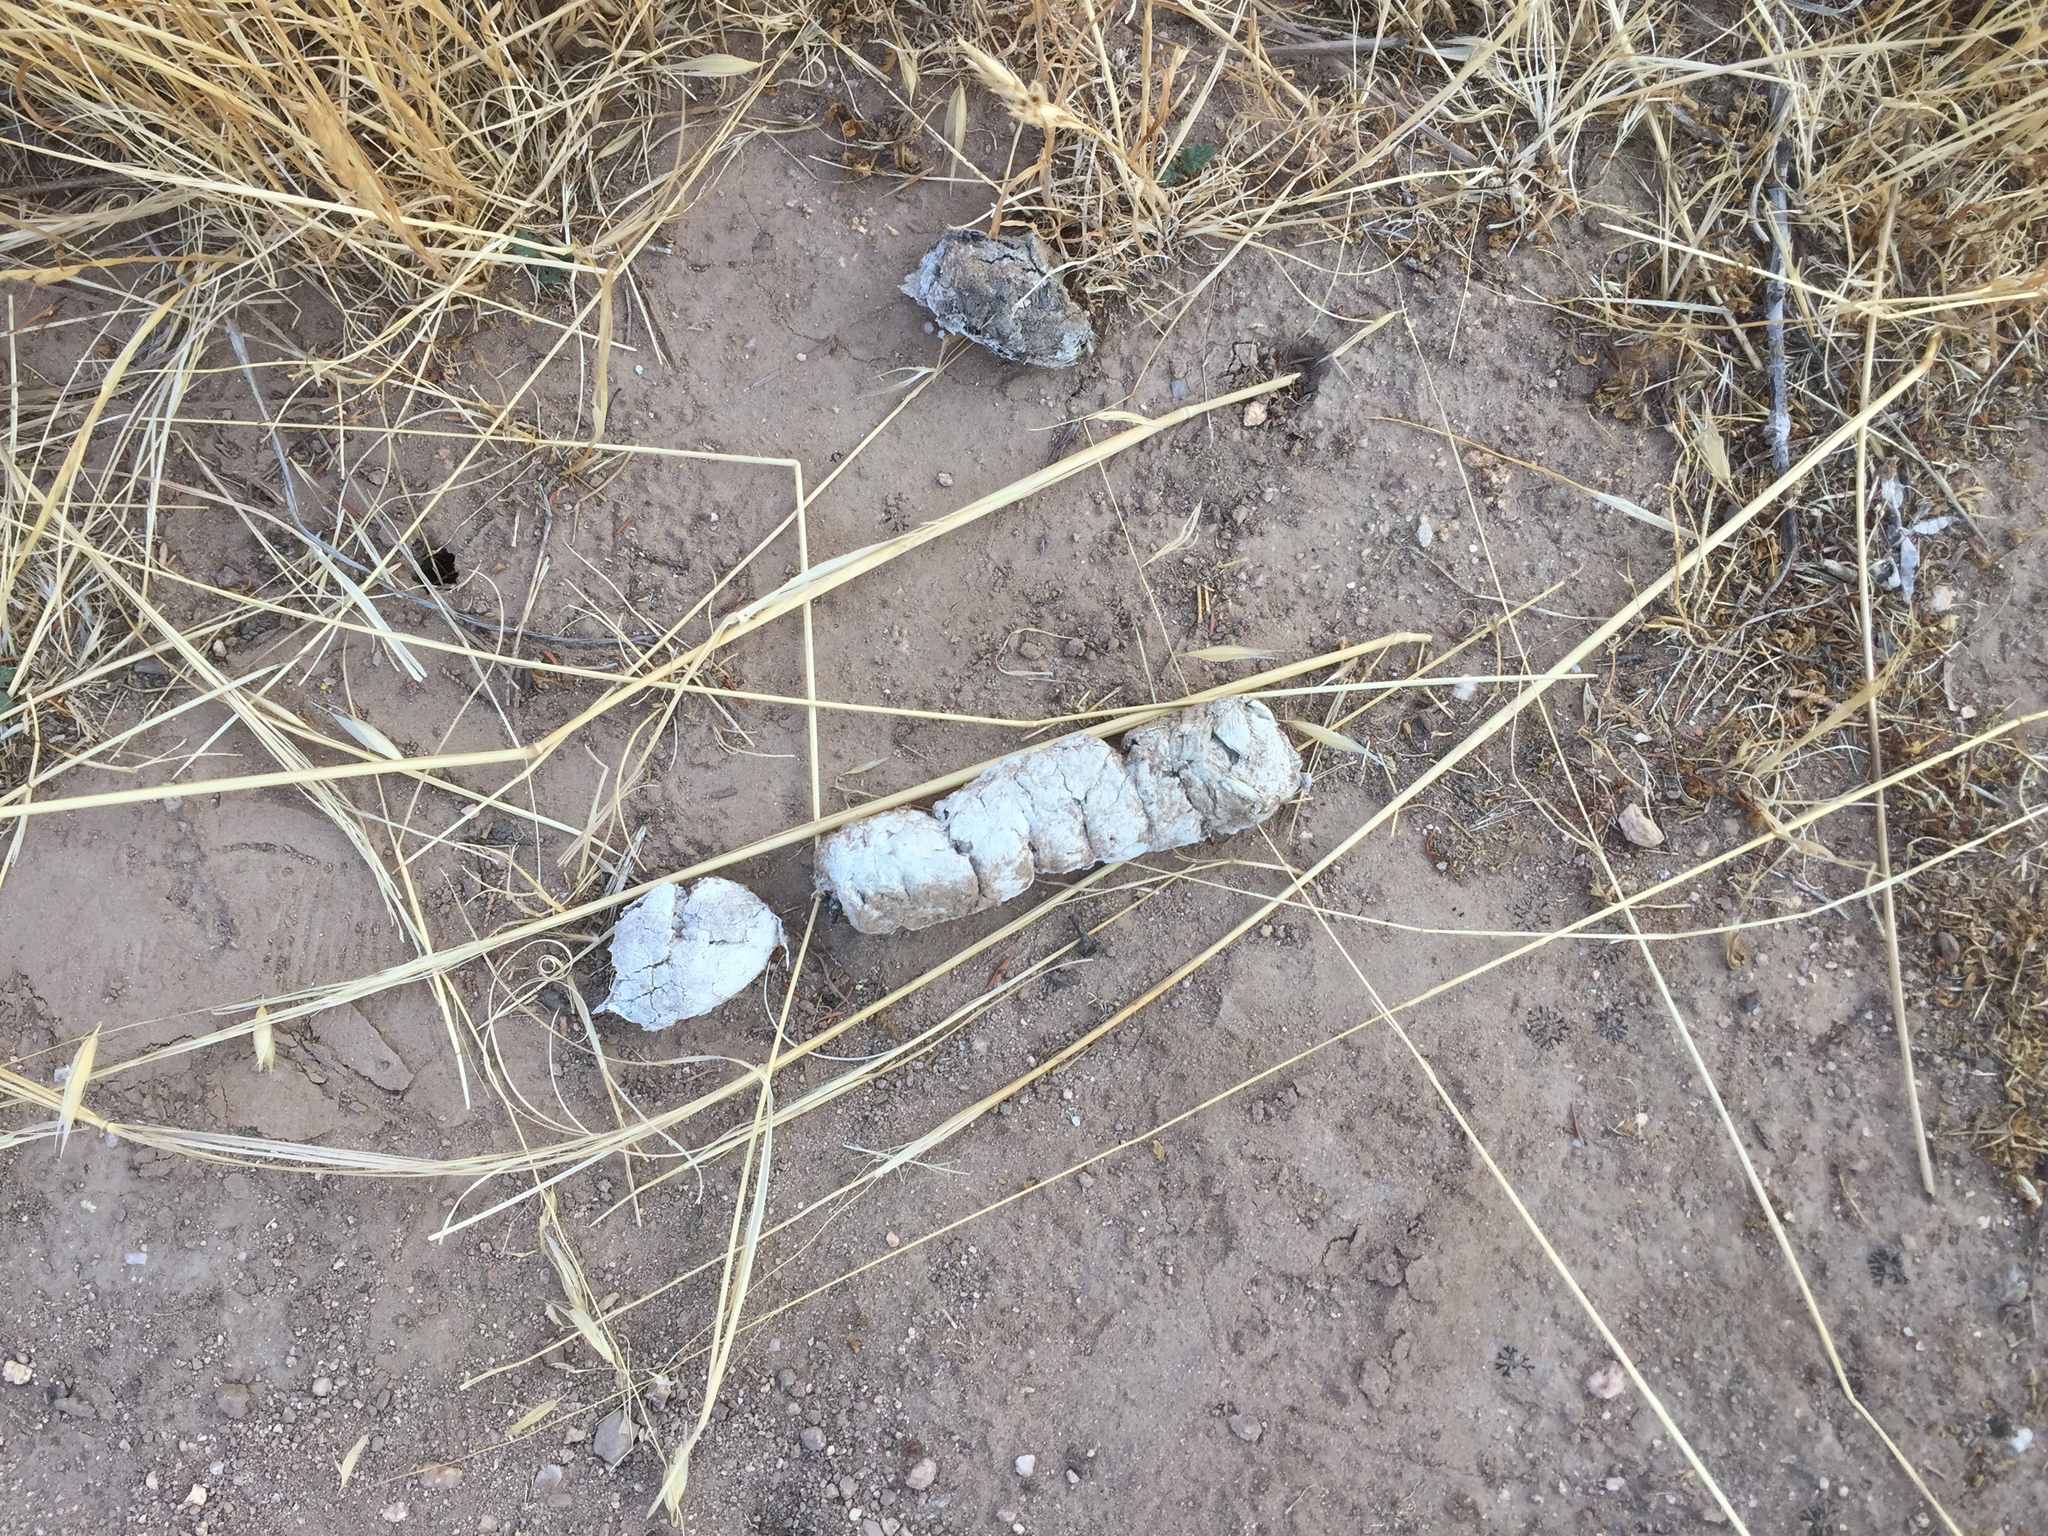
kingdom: Animalia
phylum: Chordata
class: Mammalia
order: Carnivora
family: Felidae
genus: Lynx
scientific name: Lynx rufus
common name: Bobcat
